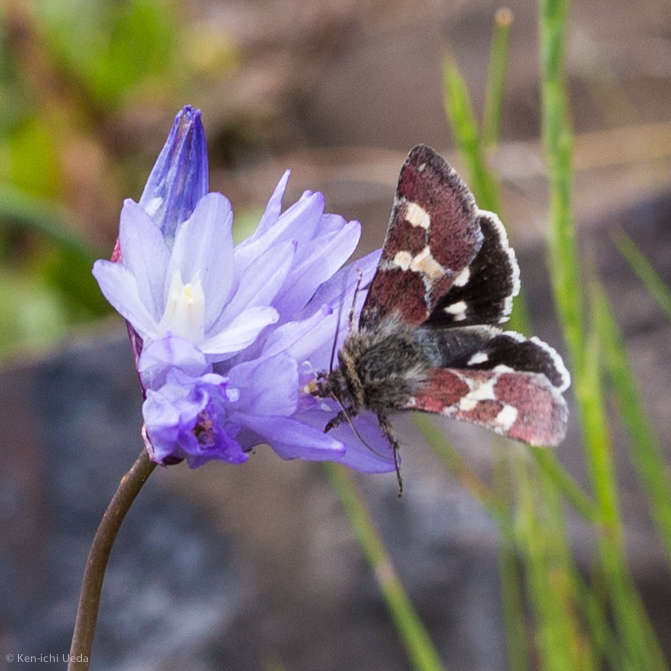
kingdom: Animalia
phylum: Arthropoda
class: Insecta
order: Lepidoptera
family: Noctuidae
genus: Schinia
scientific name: Schinia suetus
